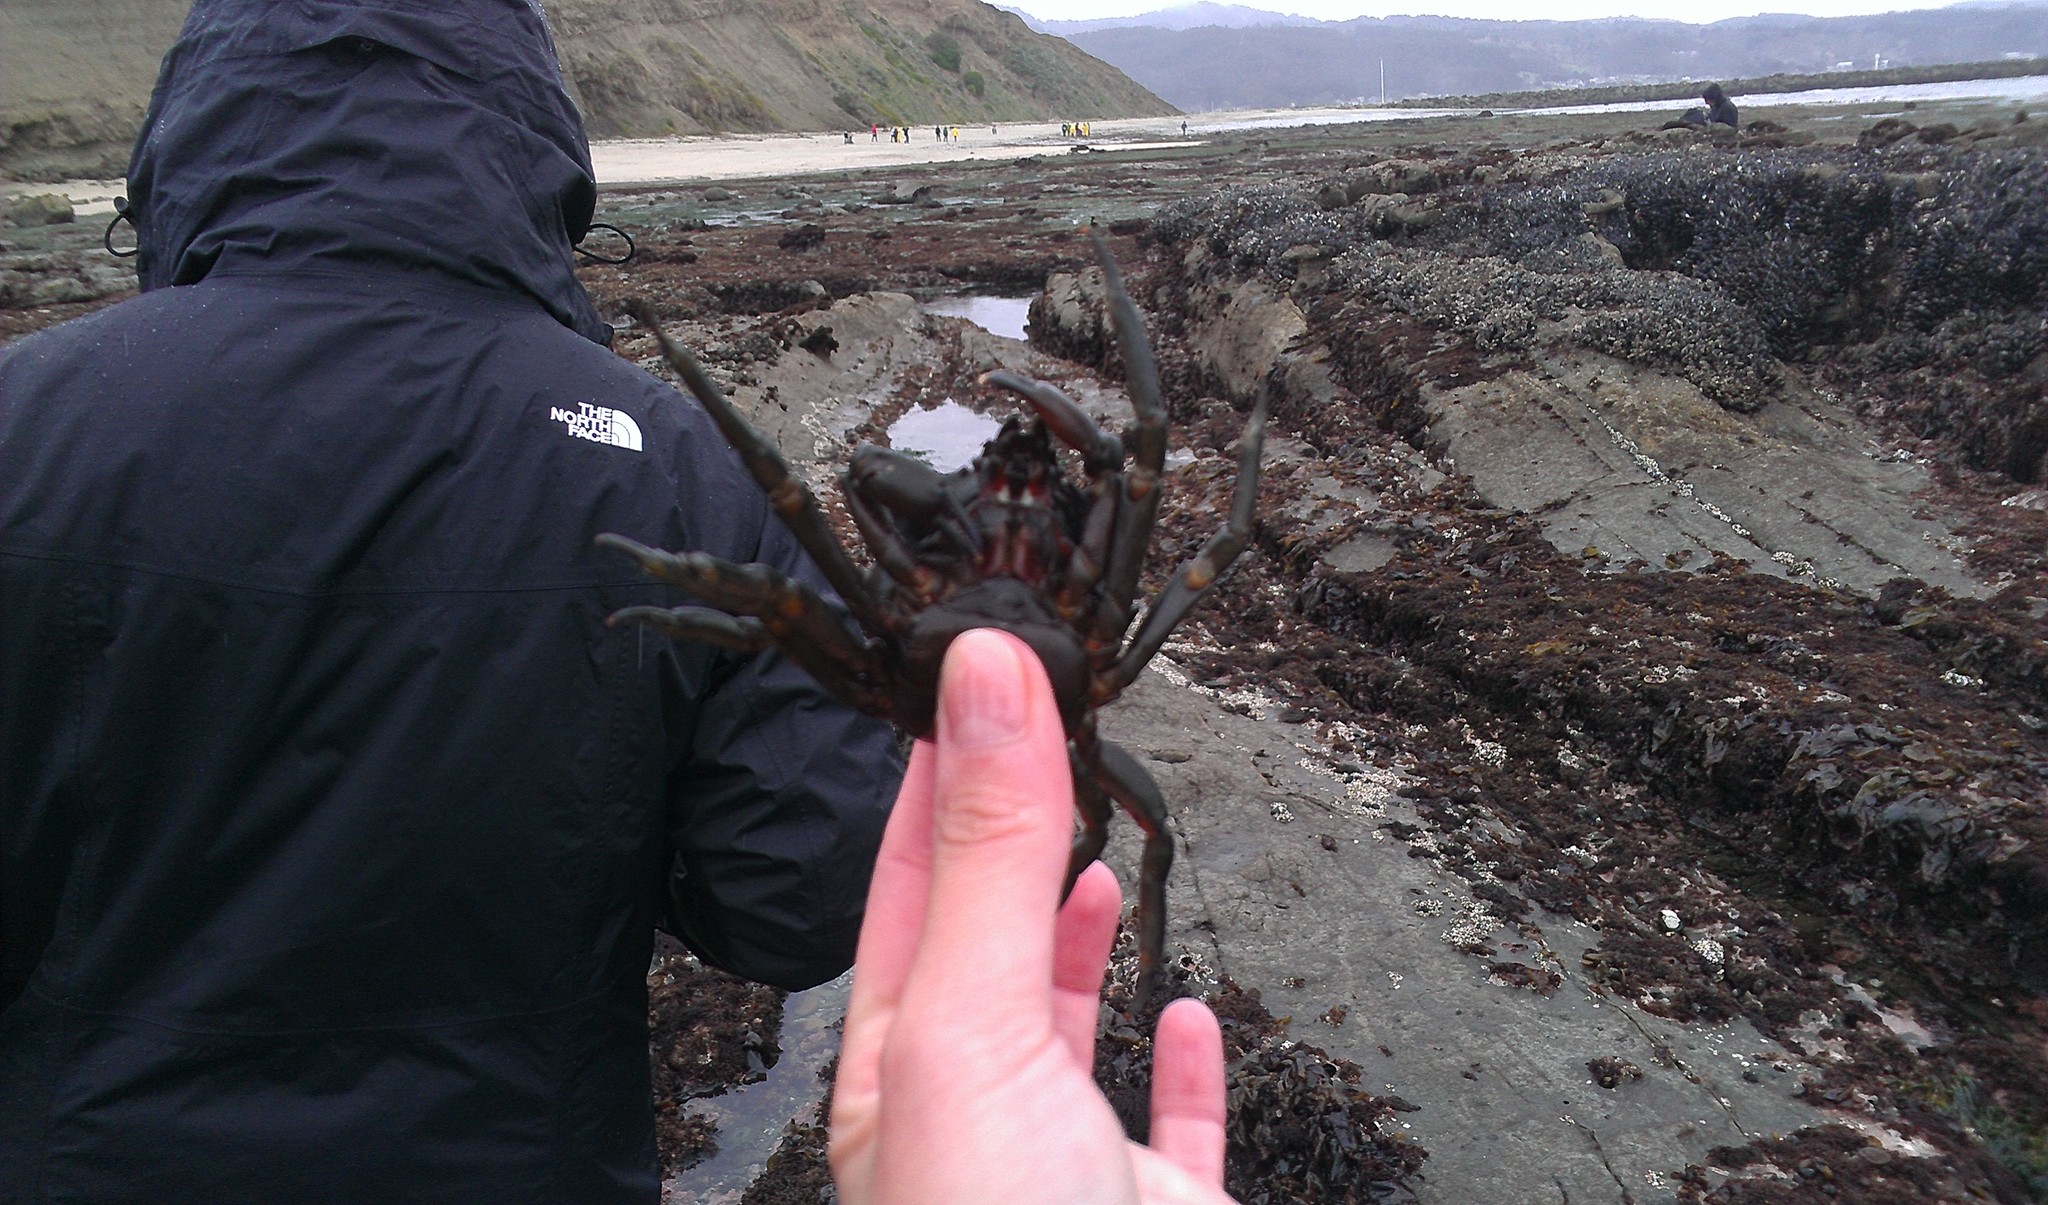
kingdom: Animalia
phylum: Arthropoda
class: Malacostraca
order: Decapoda
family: Epialtidae
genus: Pugettia
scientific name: Pugettia producta
